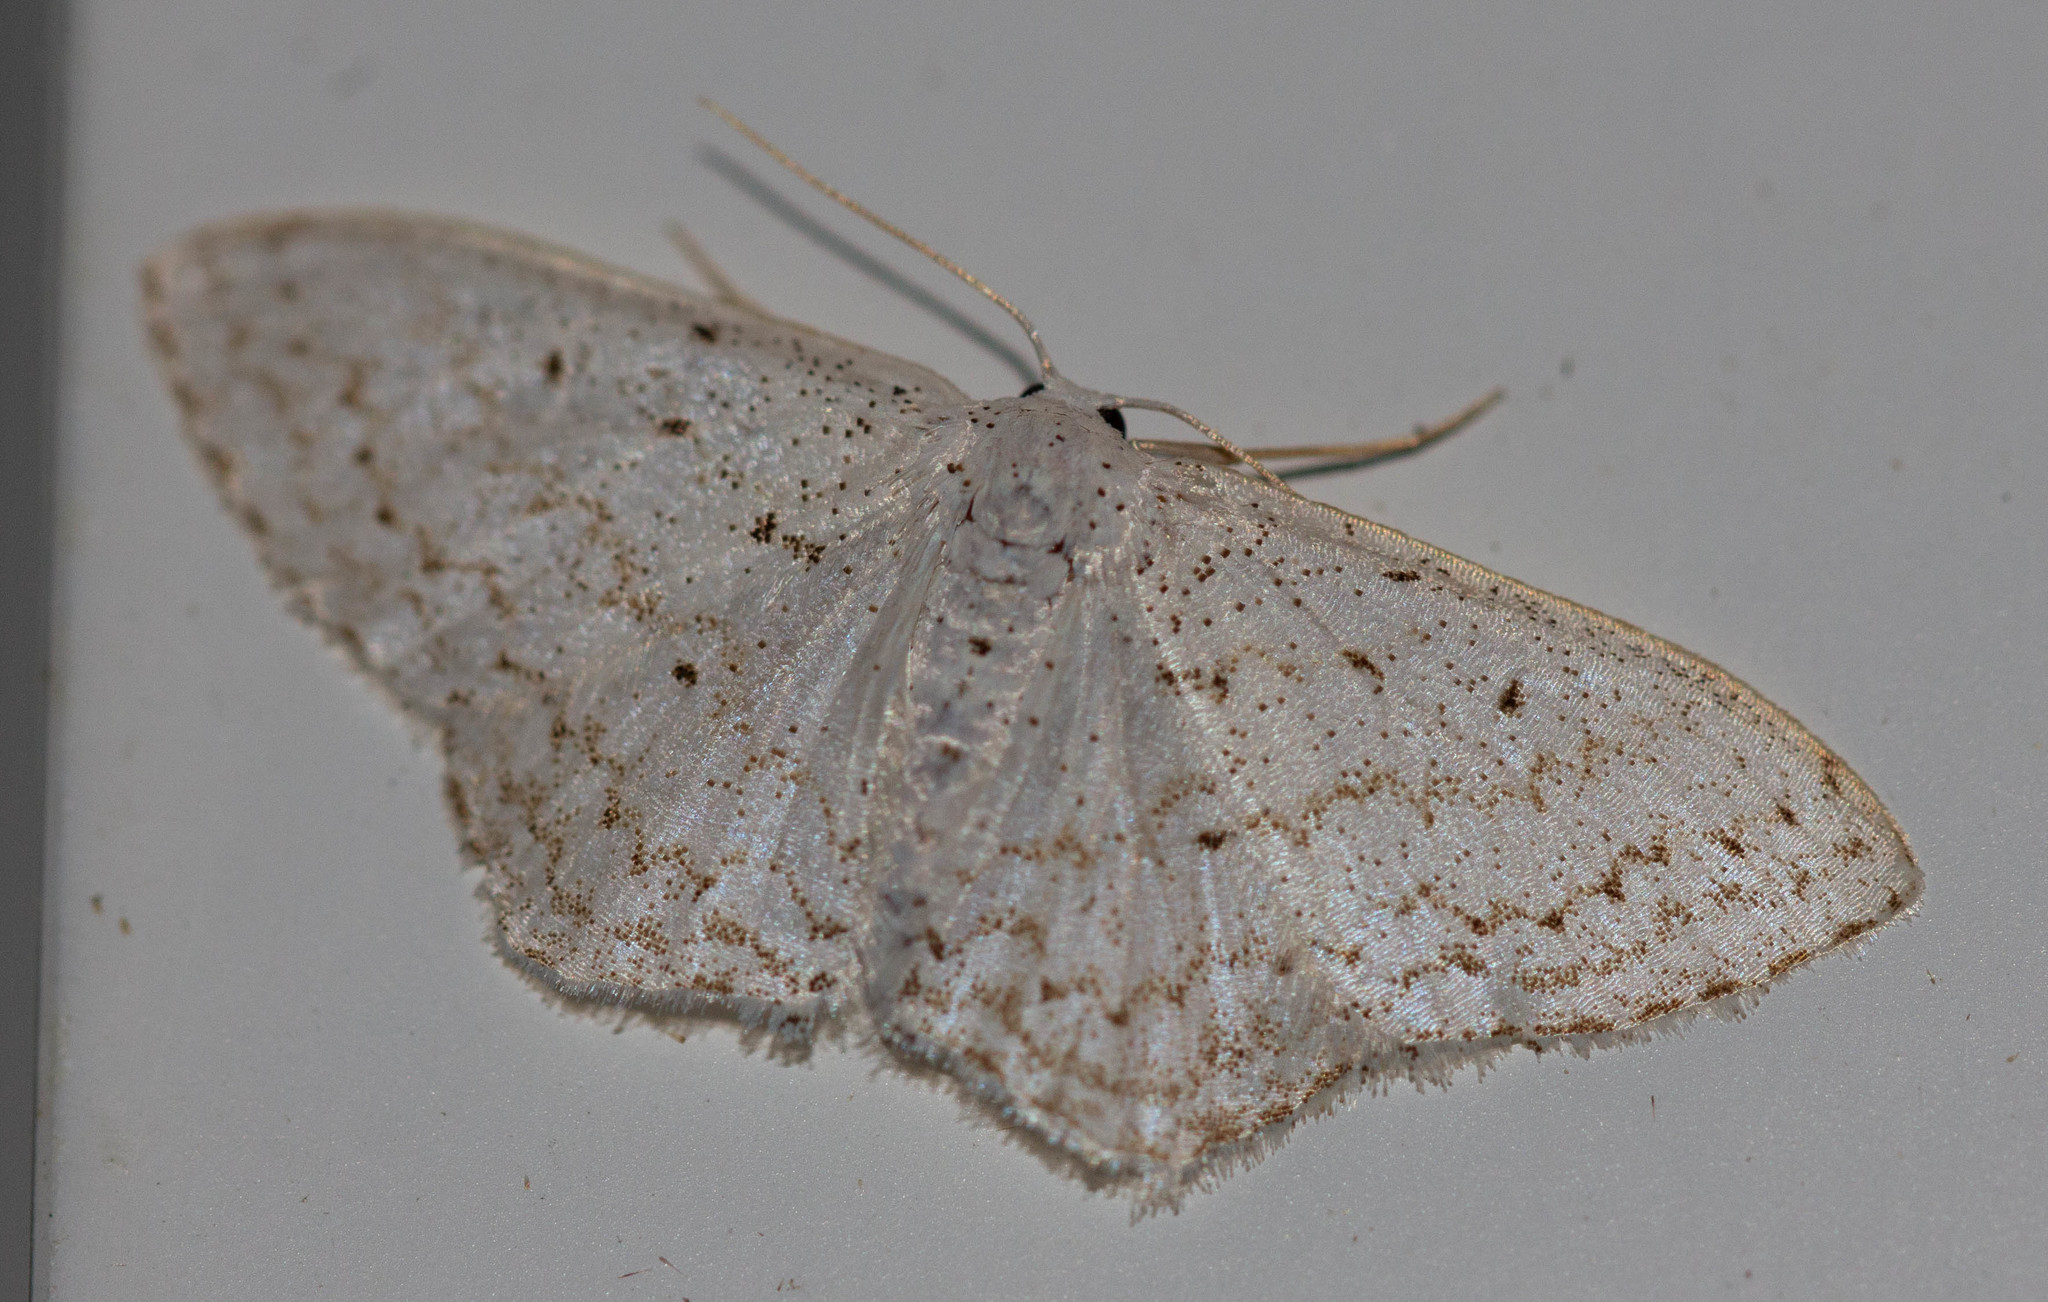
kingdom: Animalia
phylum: Arthropoda
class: Insecta
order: Lepidoptera
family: Geometridae
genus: Idaea
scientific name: Idaea tacturata
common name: Dot-lined wave
